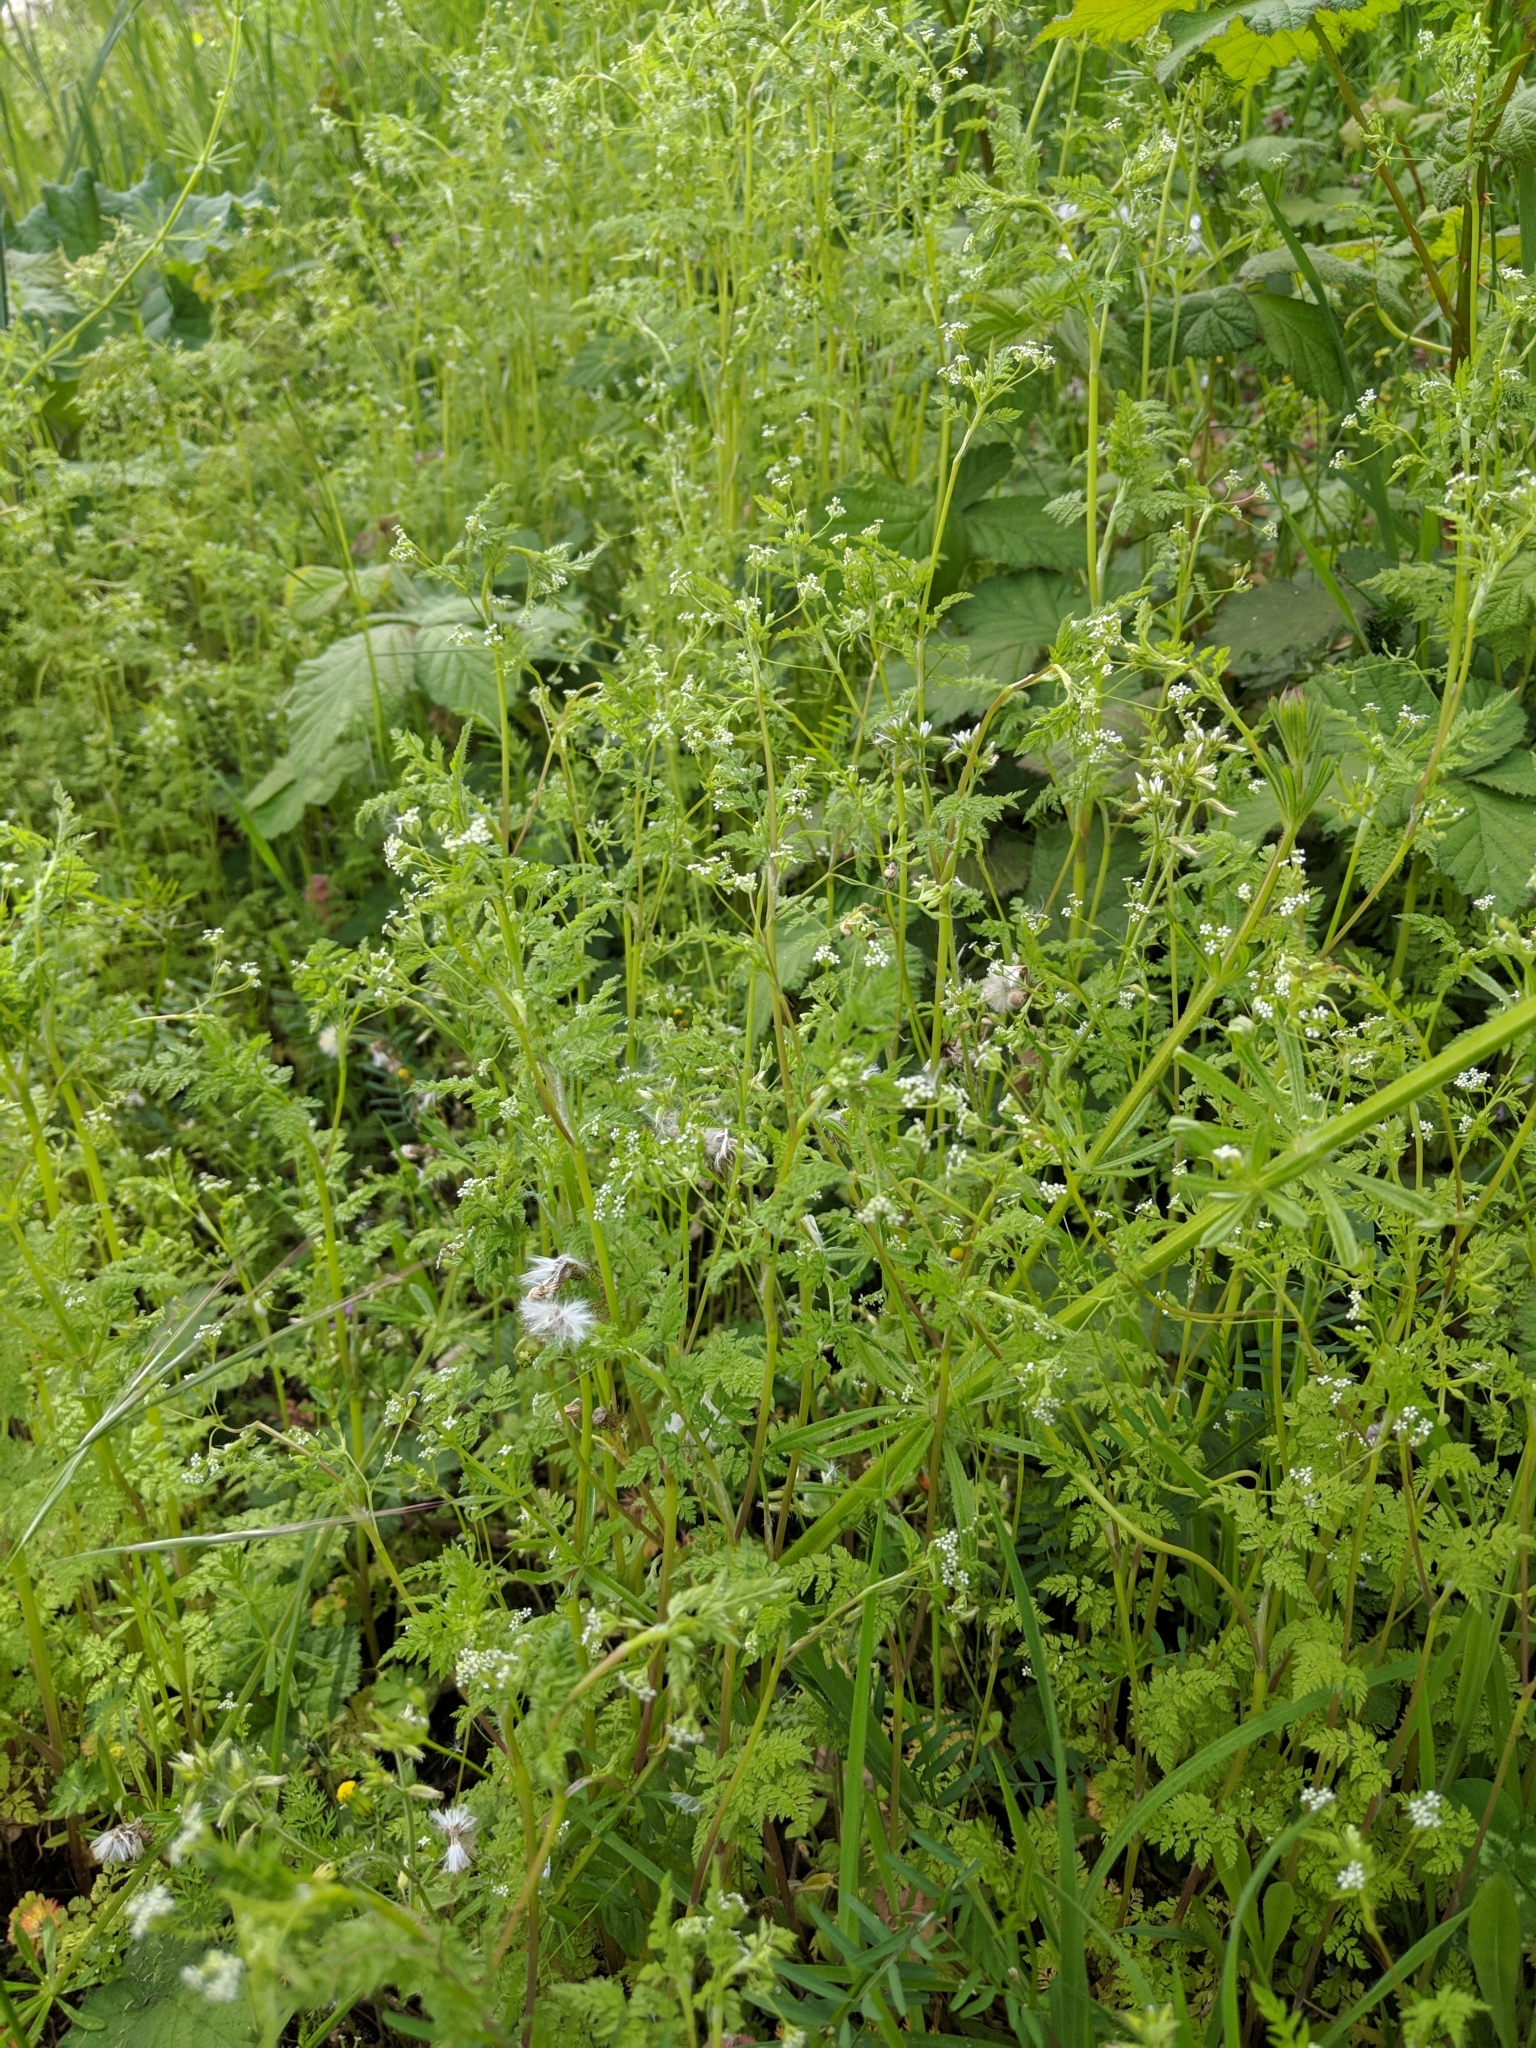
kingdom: Plantae
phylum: Tracheophyta
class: Magnoliopsida
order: Apiales
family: Apiaceae
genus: Anthriscus
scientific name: Anthriscus caucalis
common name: Bur chervil
